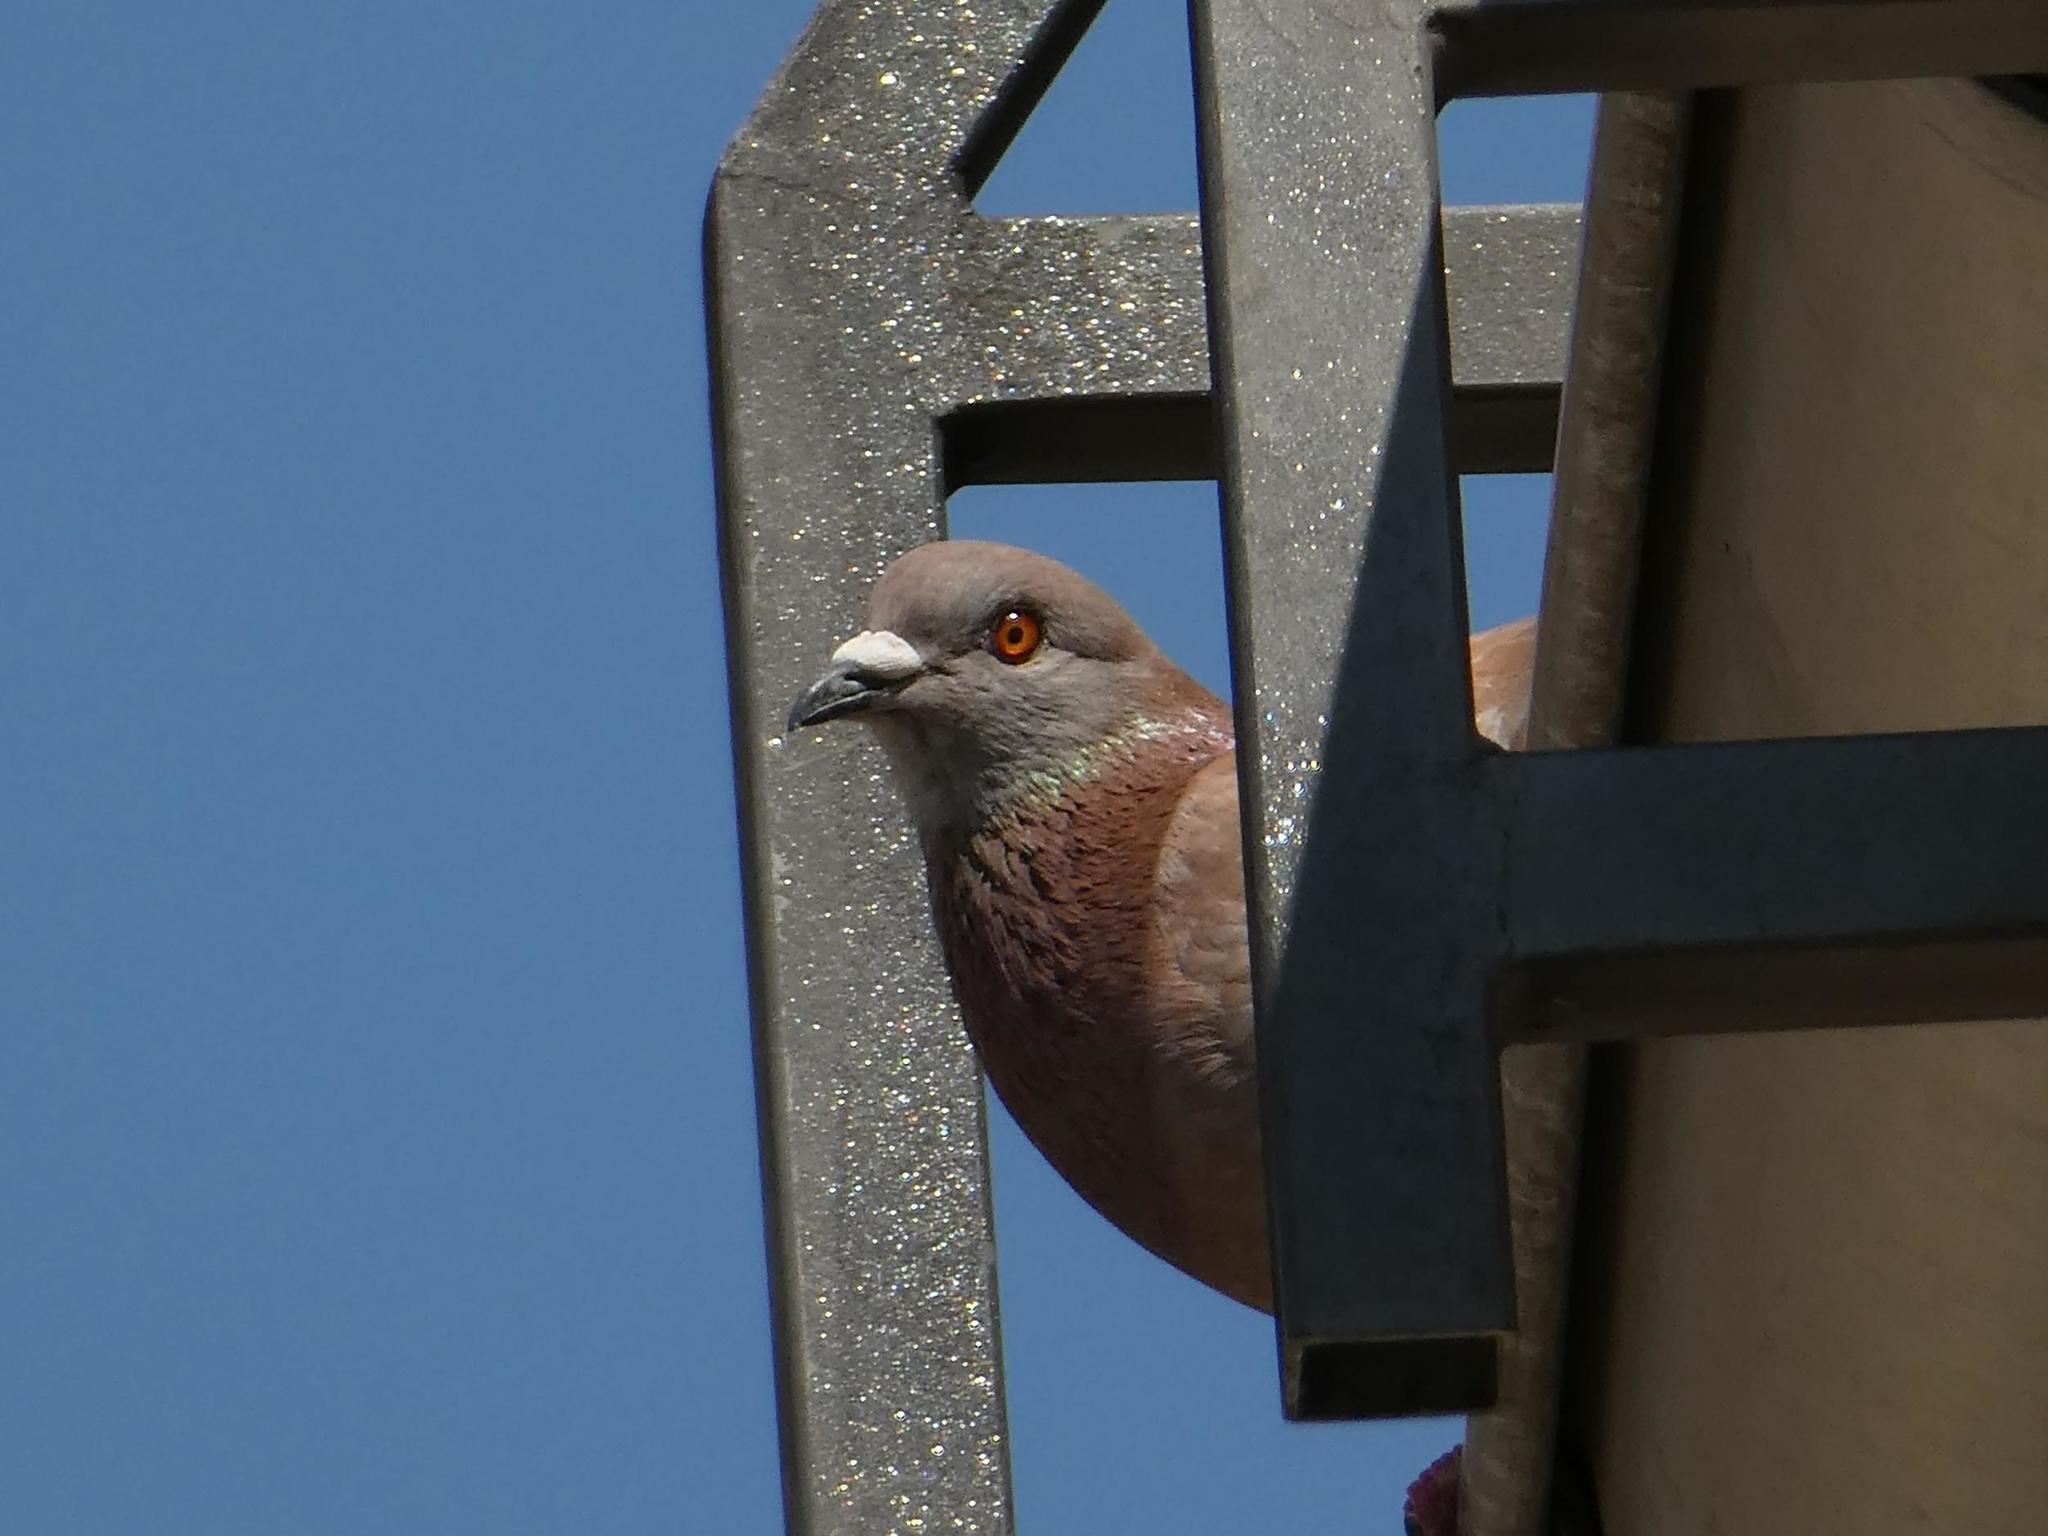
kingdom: Animalia
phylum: Chordata
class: Aves
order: Columbiformes
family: Columbidae
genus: Columba
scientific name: Columba livia
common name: Rock pigeon
